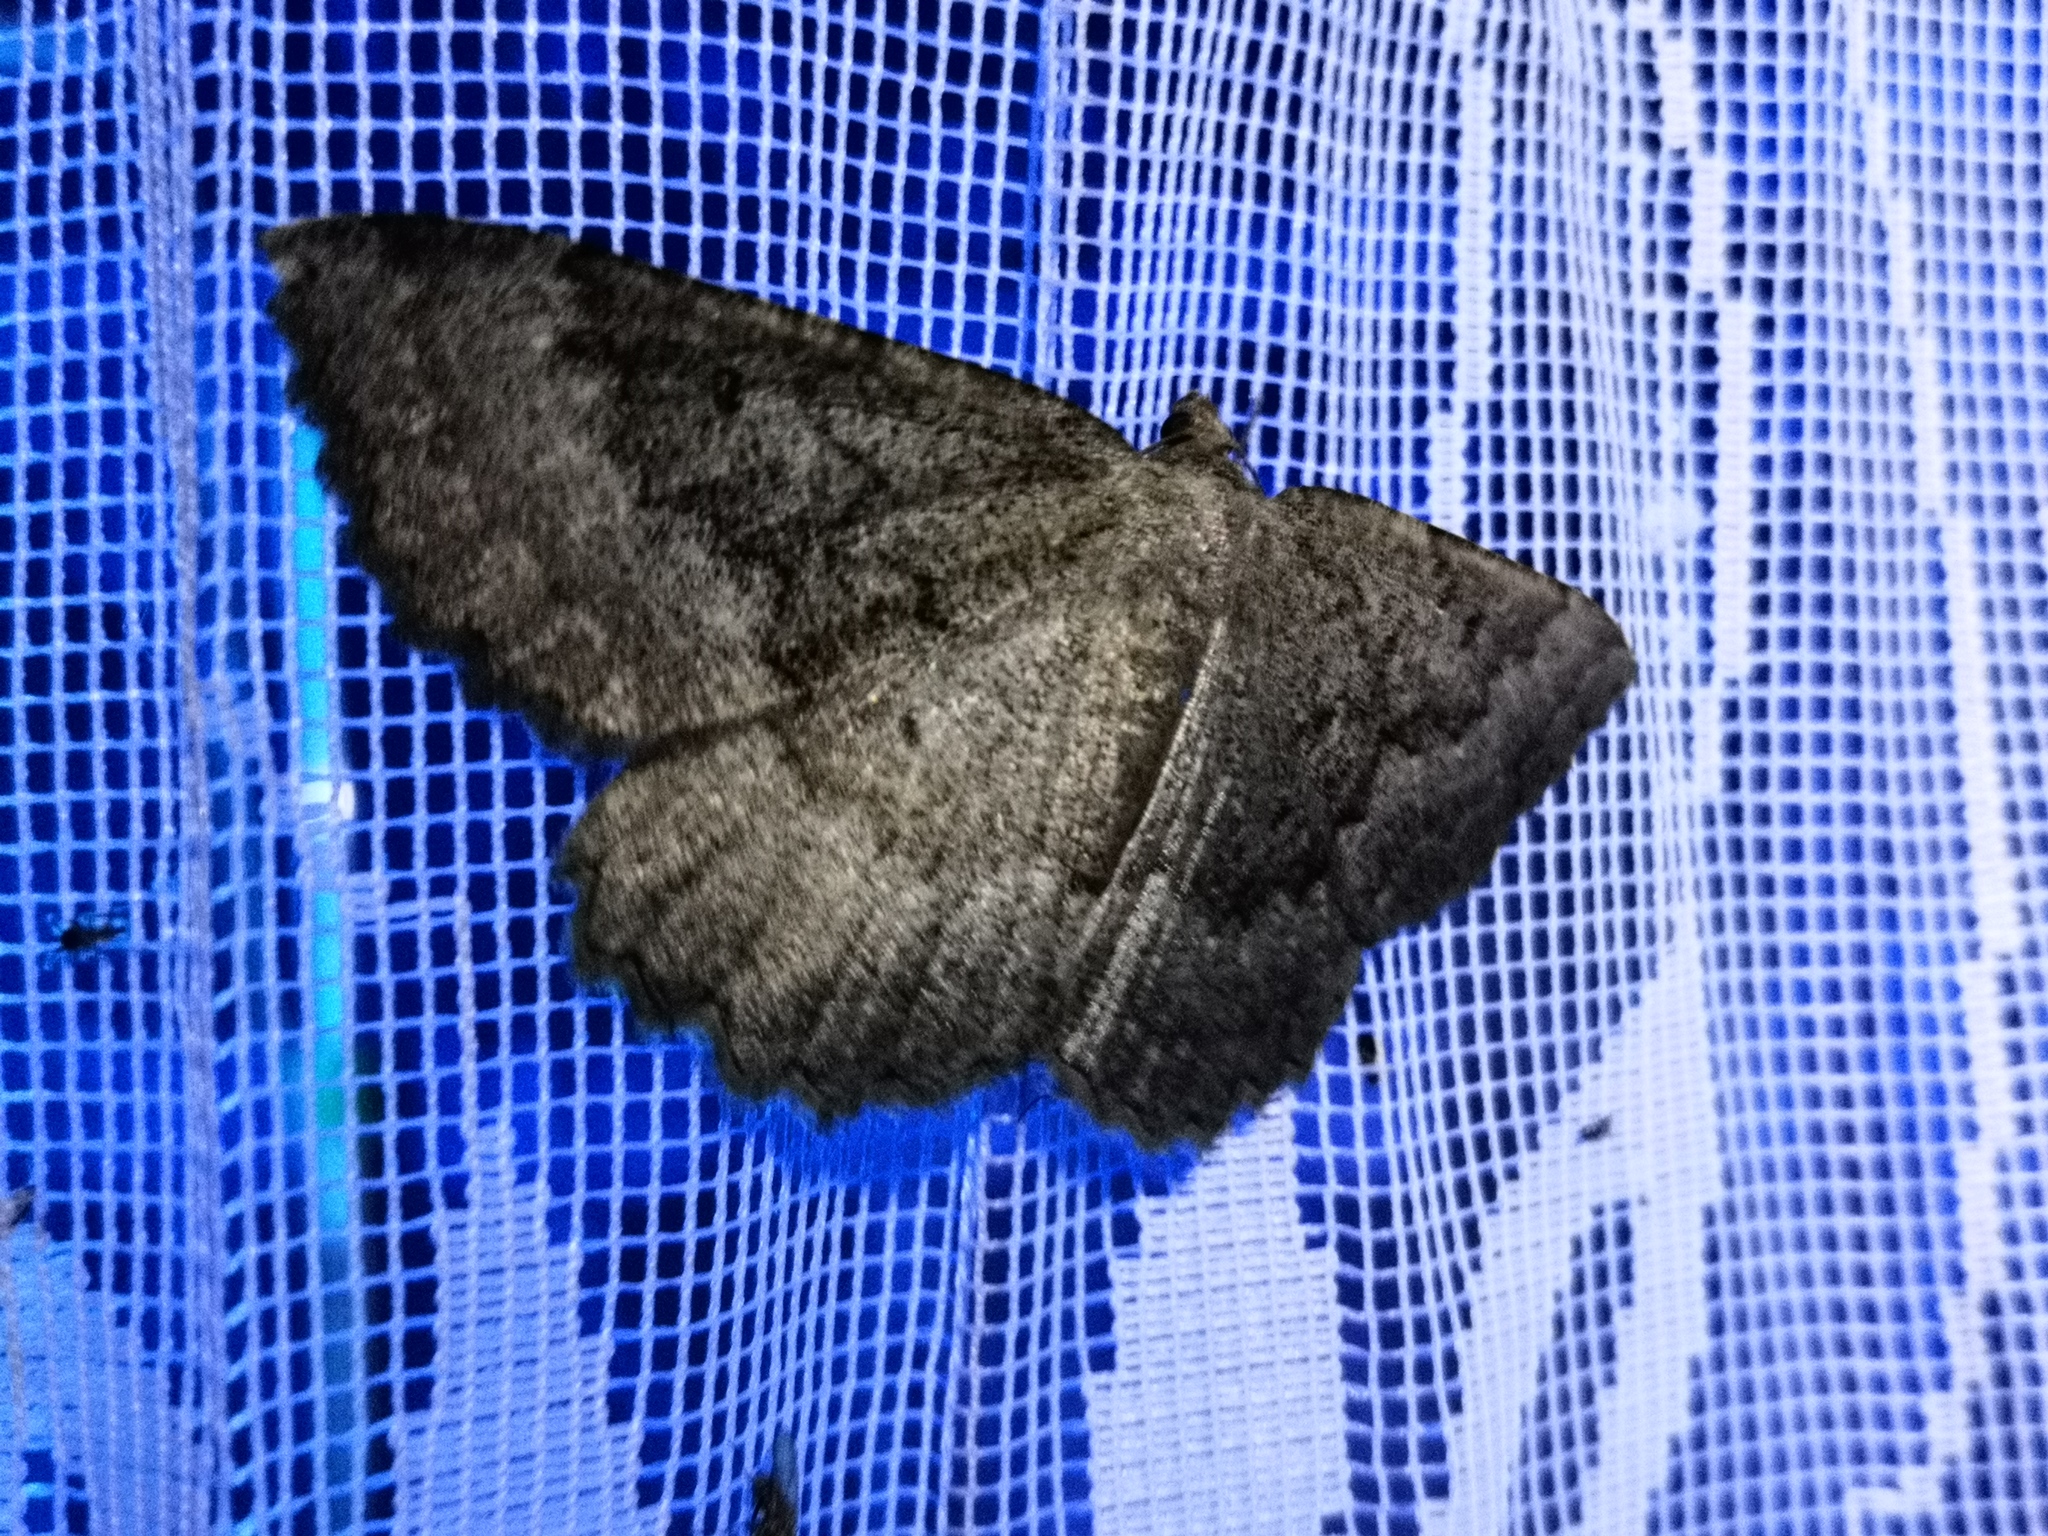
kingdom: Animalia
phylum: Arthropoda
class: Insecta
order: Lepidoptera
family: Geometridae
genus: Gnophos
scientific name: Gnophos furvata
